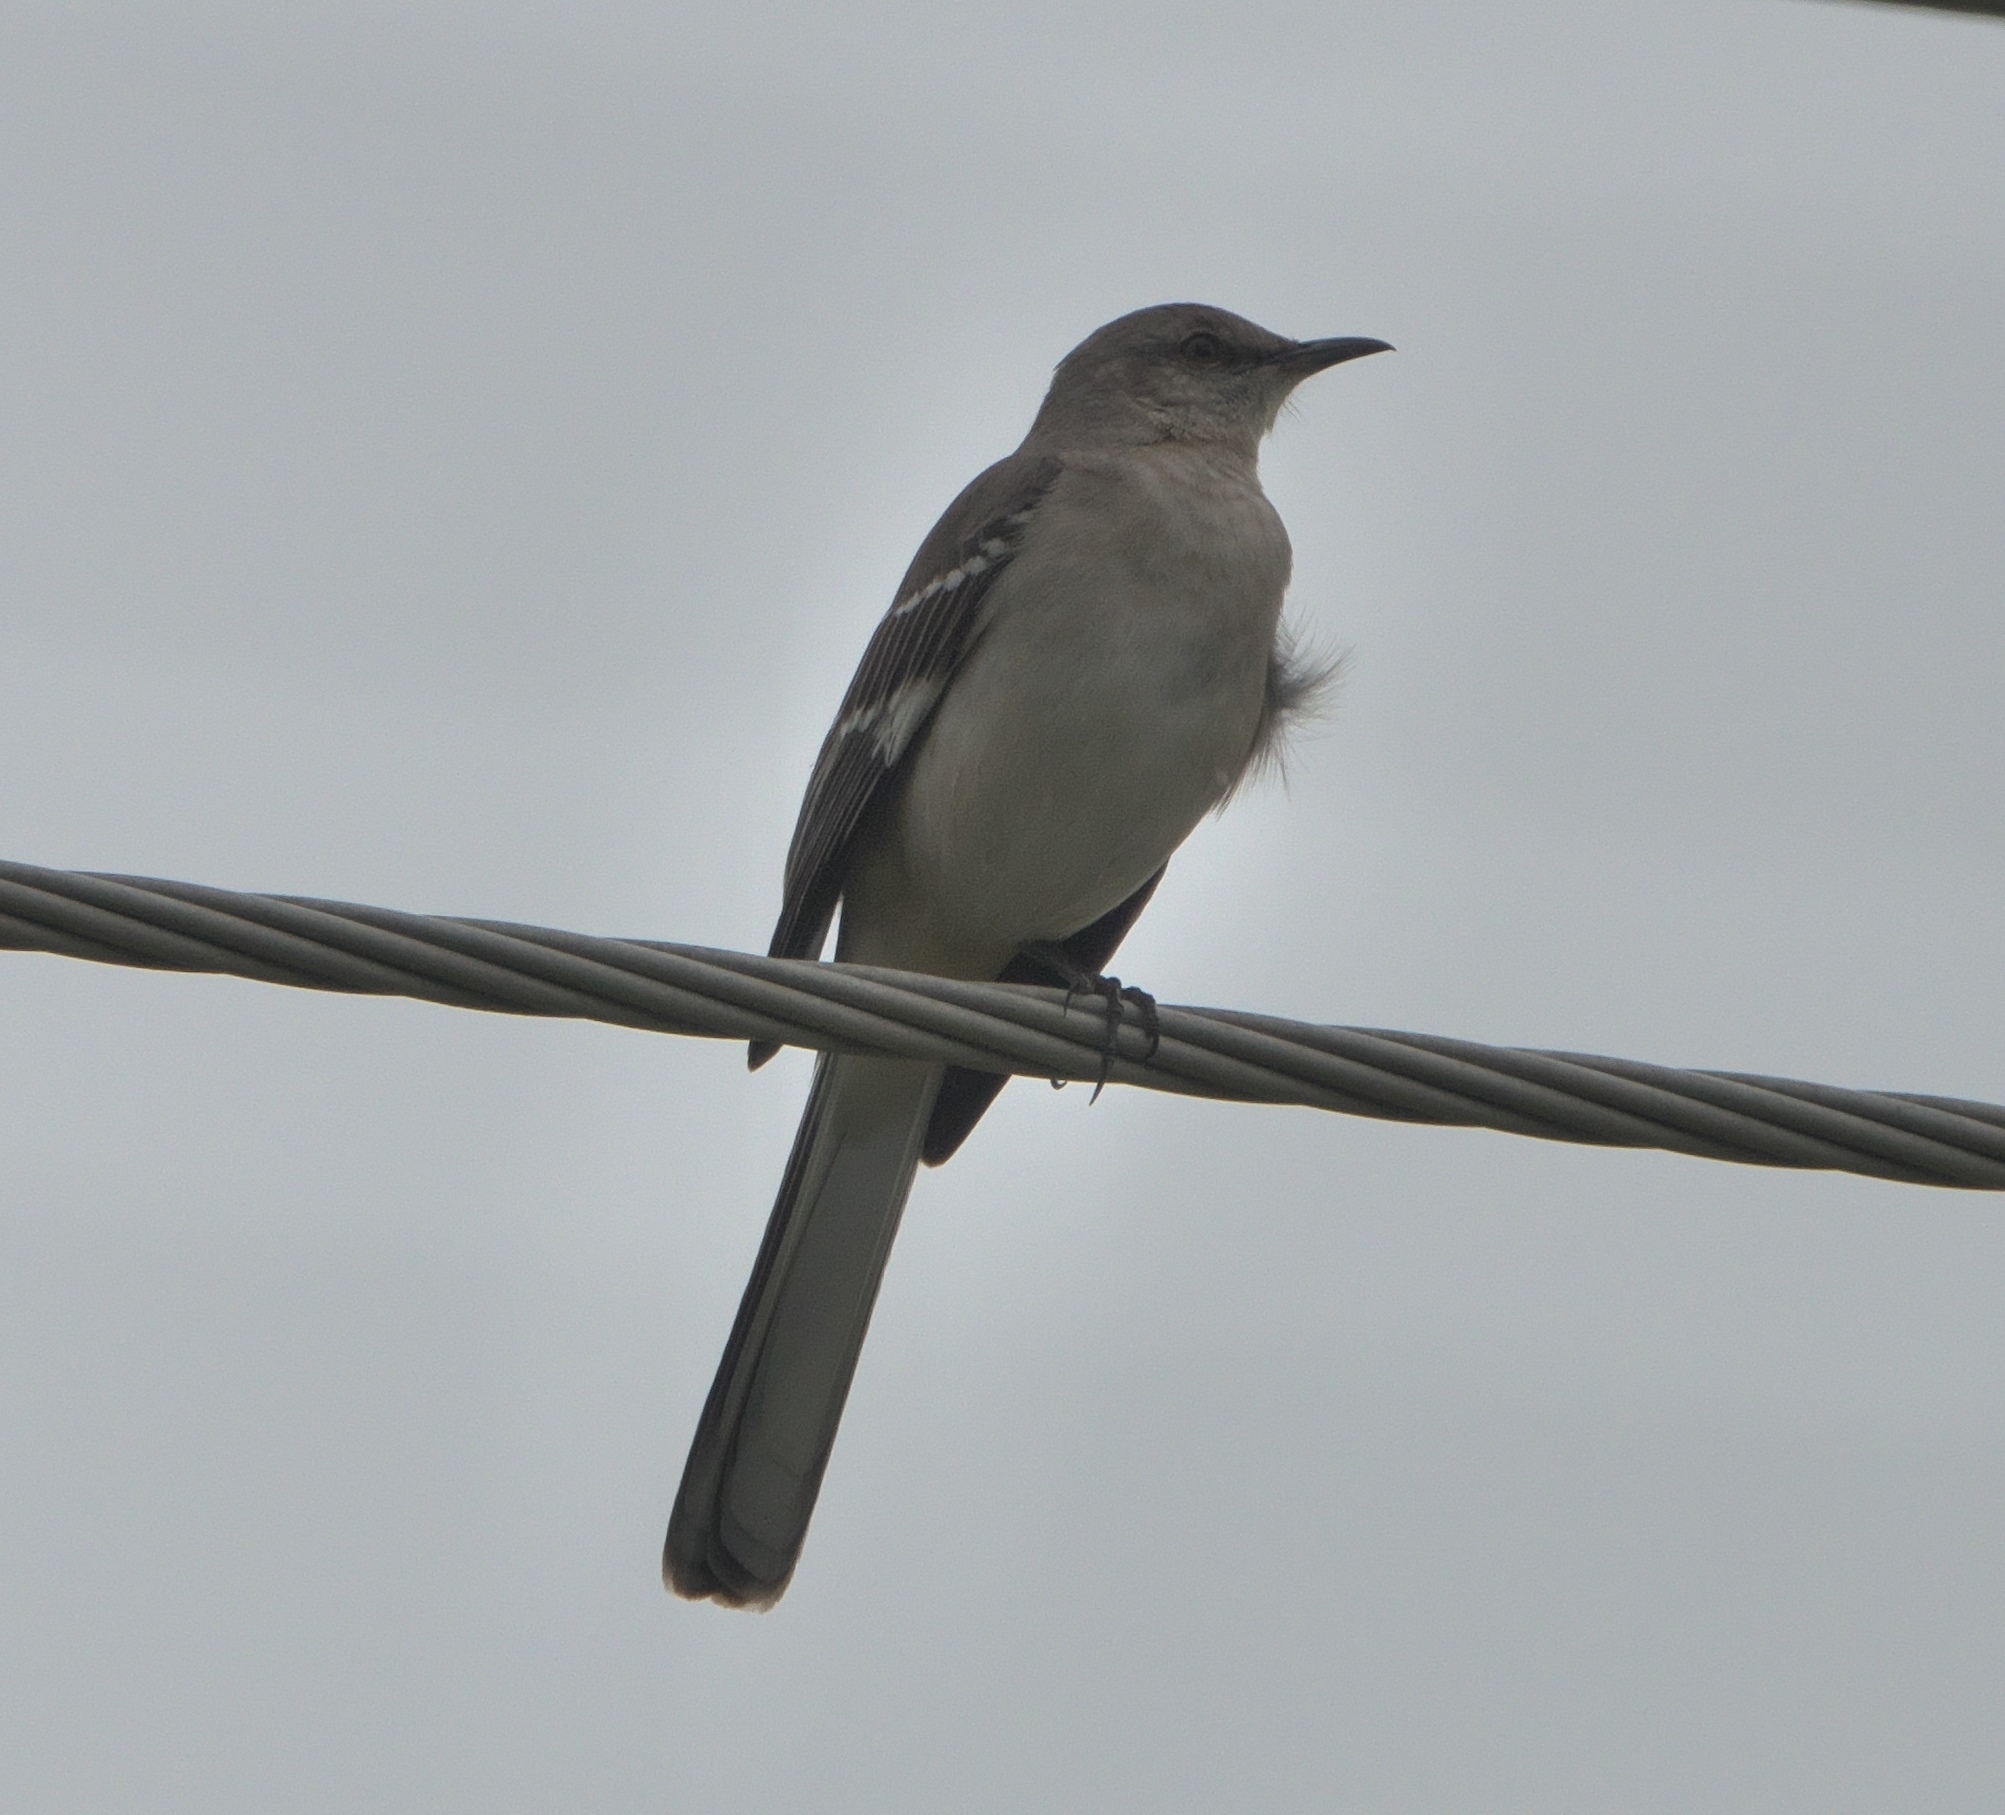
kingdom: Animalia
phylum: Chordata
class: Aves
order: Passeriformes
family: Mimidae
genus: Mimus
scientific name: Mimus polyglottos
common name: Northern mockingbird
